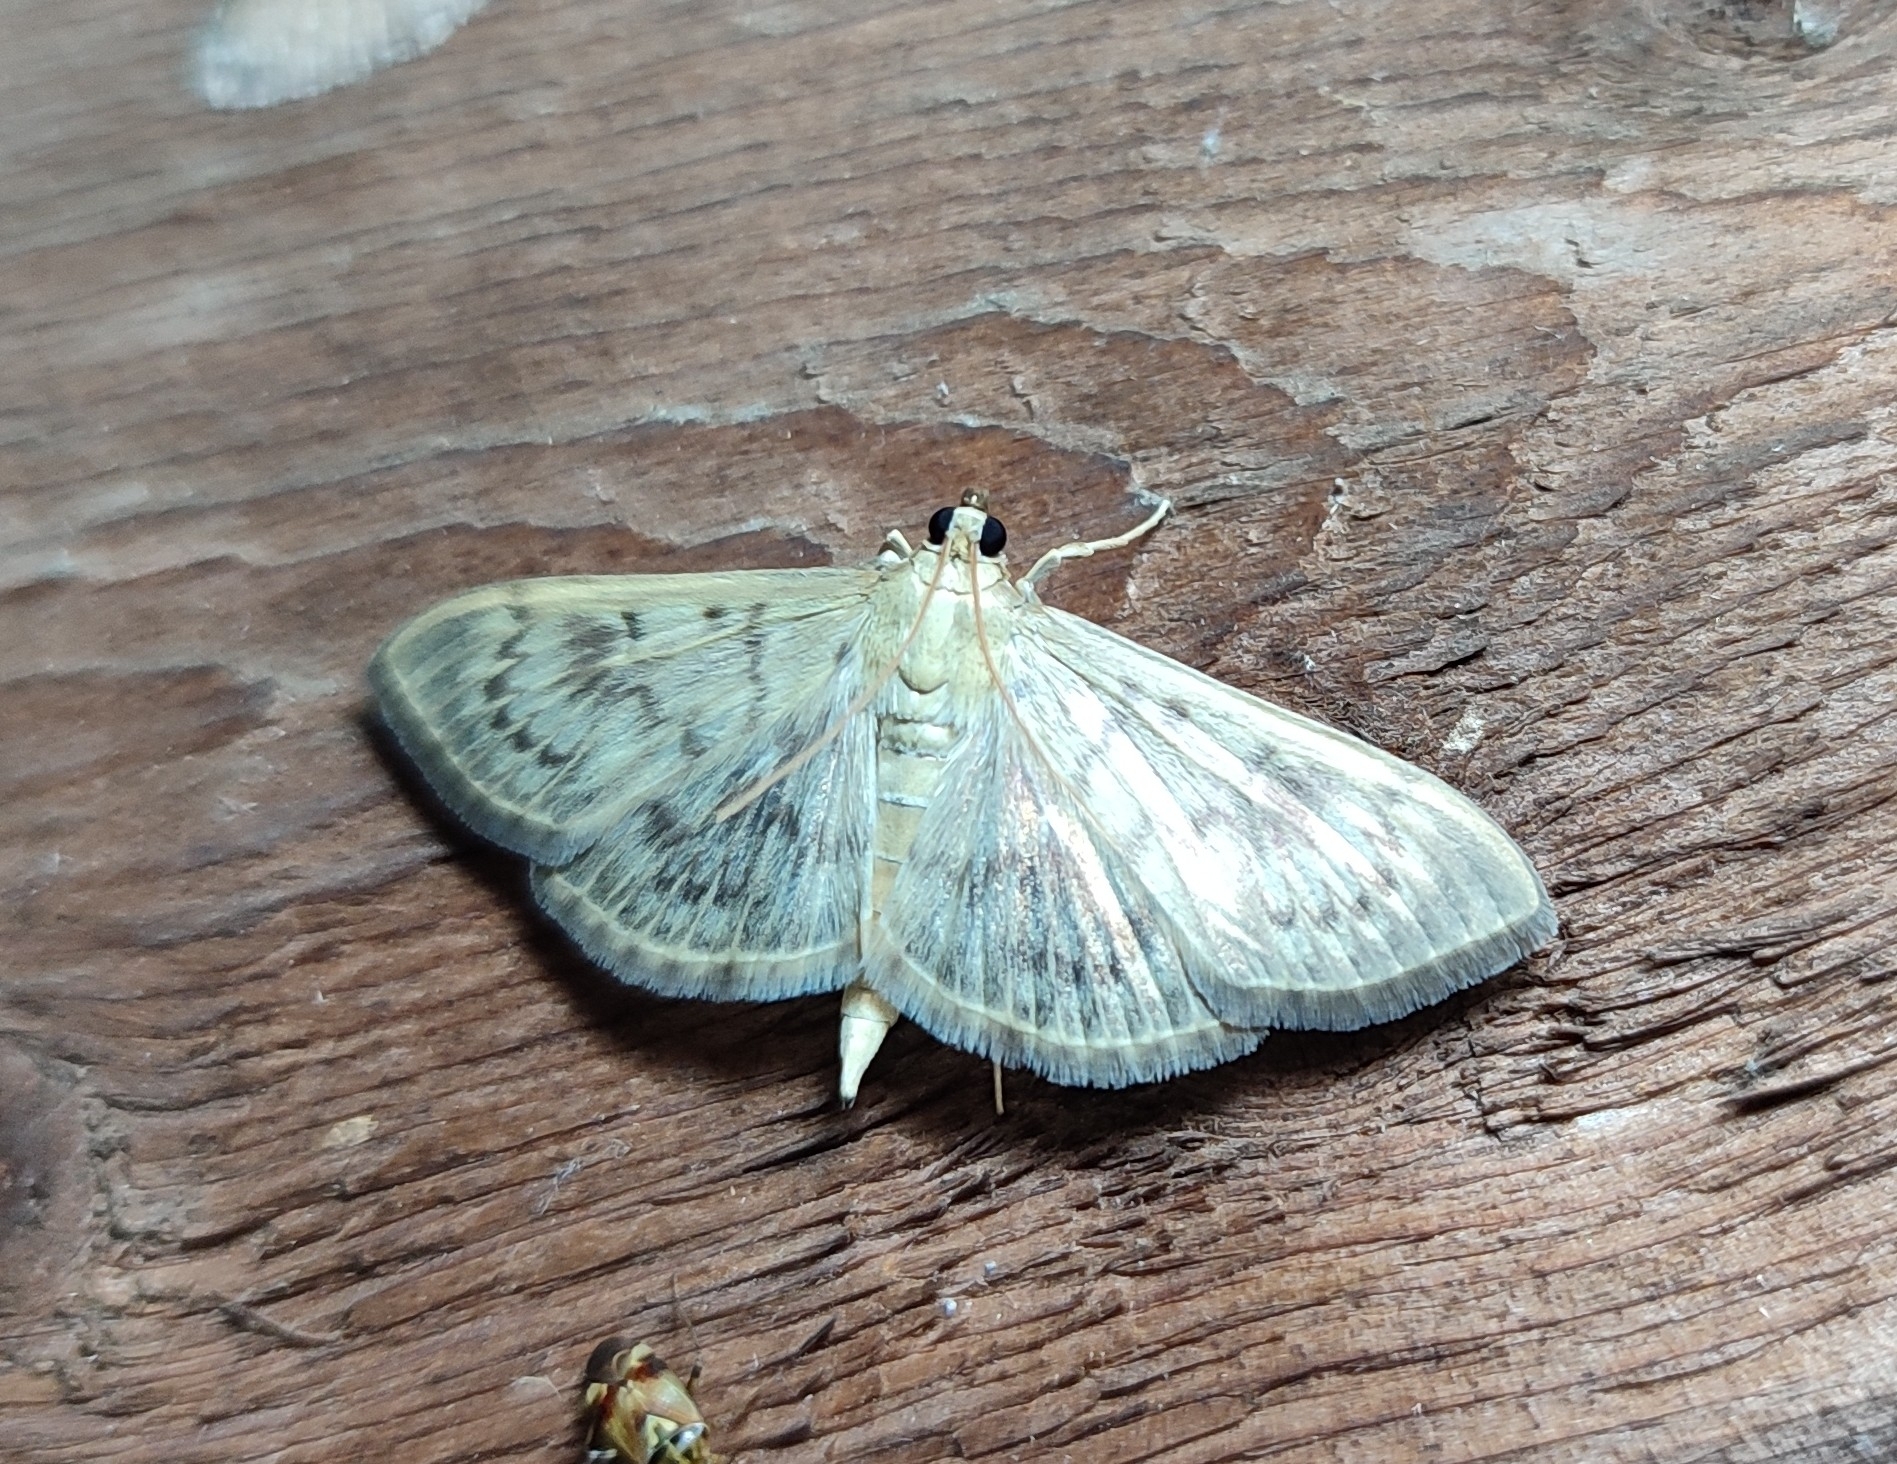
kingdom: Animalia
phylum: Arthropoda
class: Insecta
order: Lepidoptera
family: Crambidae
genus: Patania
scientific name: Patania ruralis
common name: Mother of pearl
